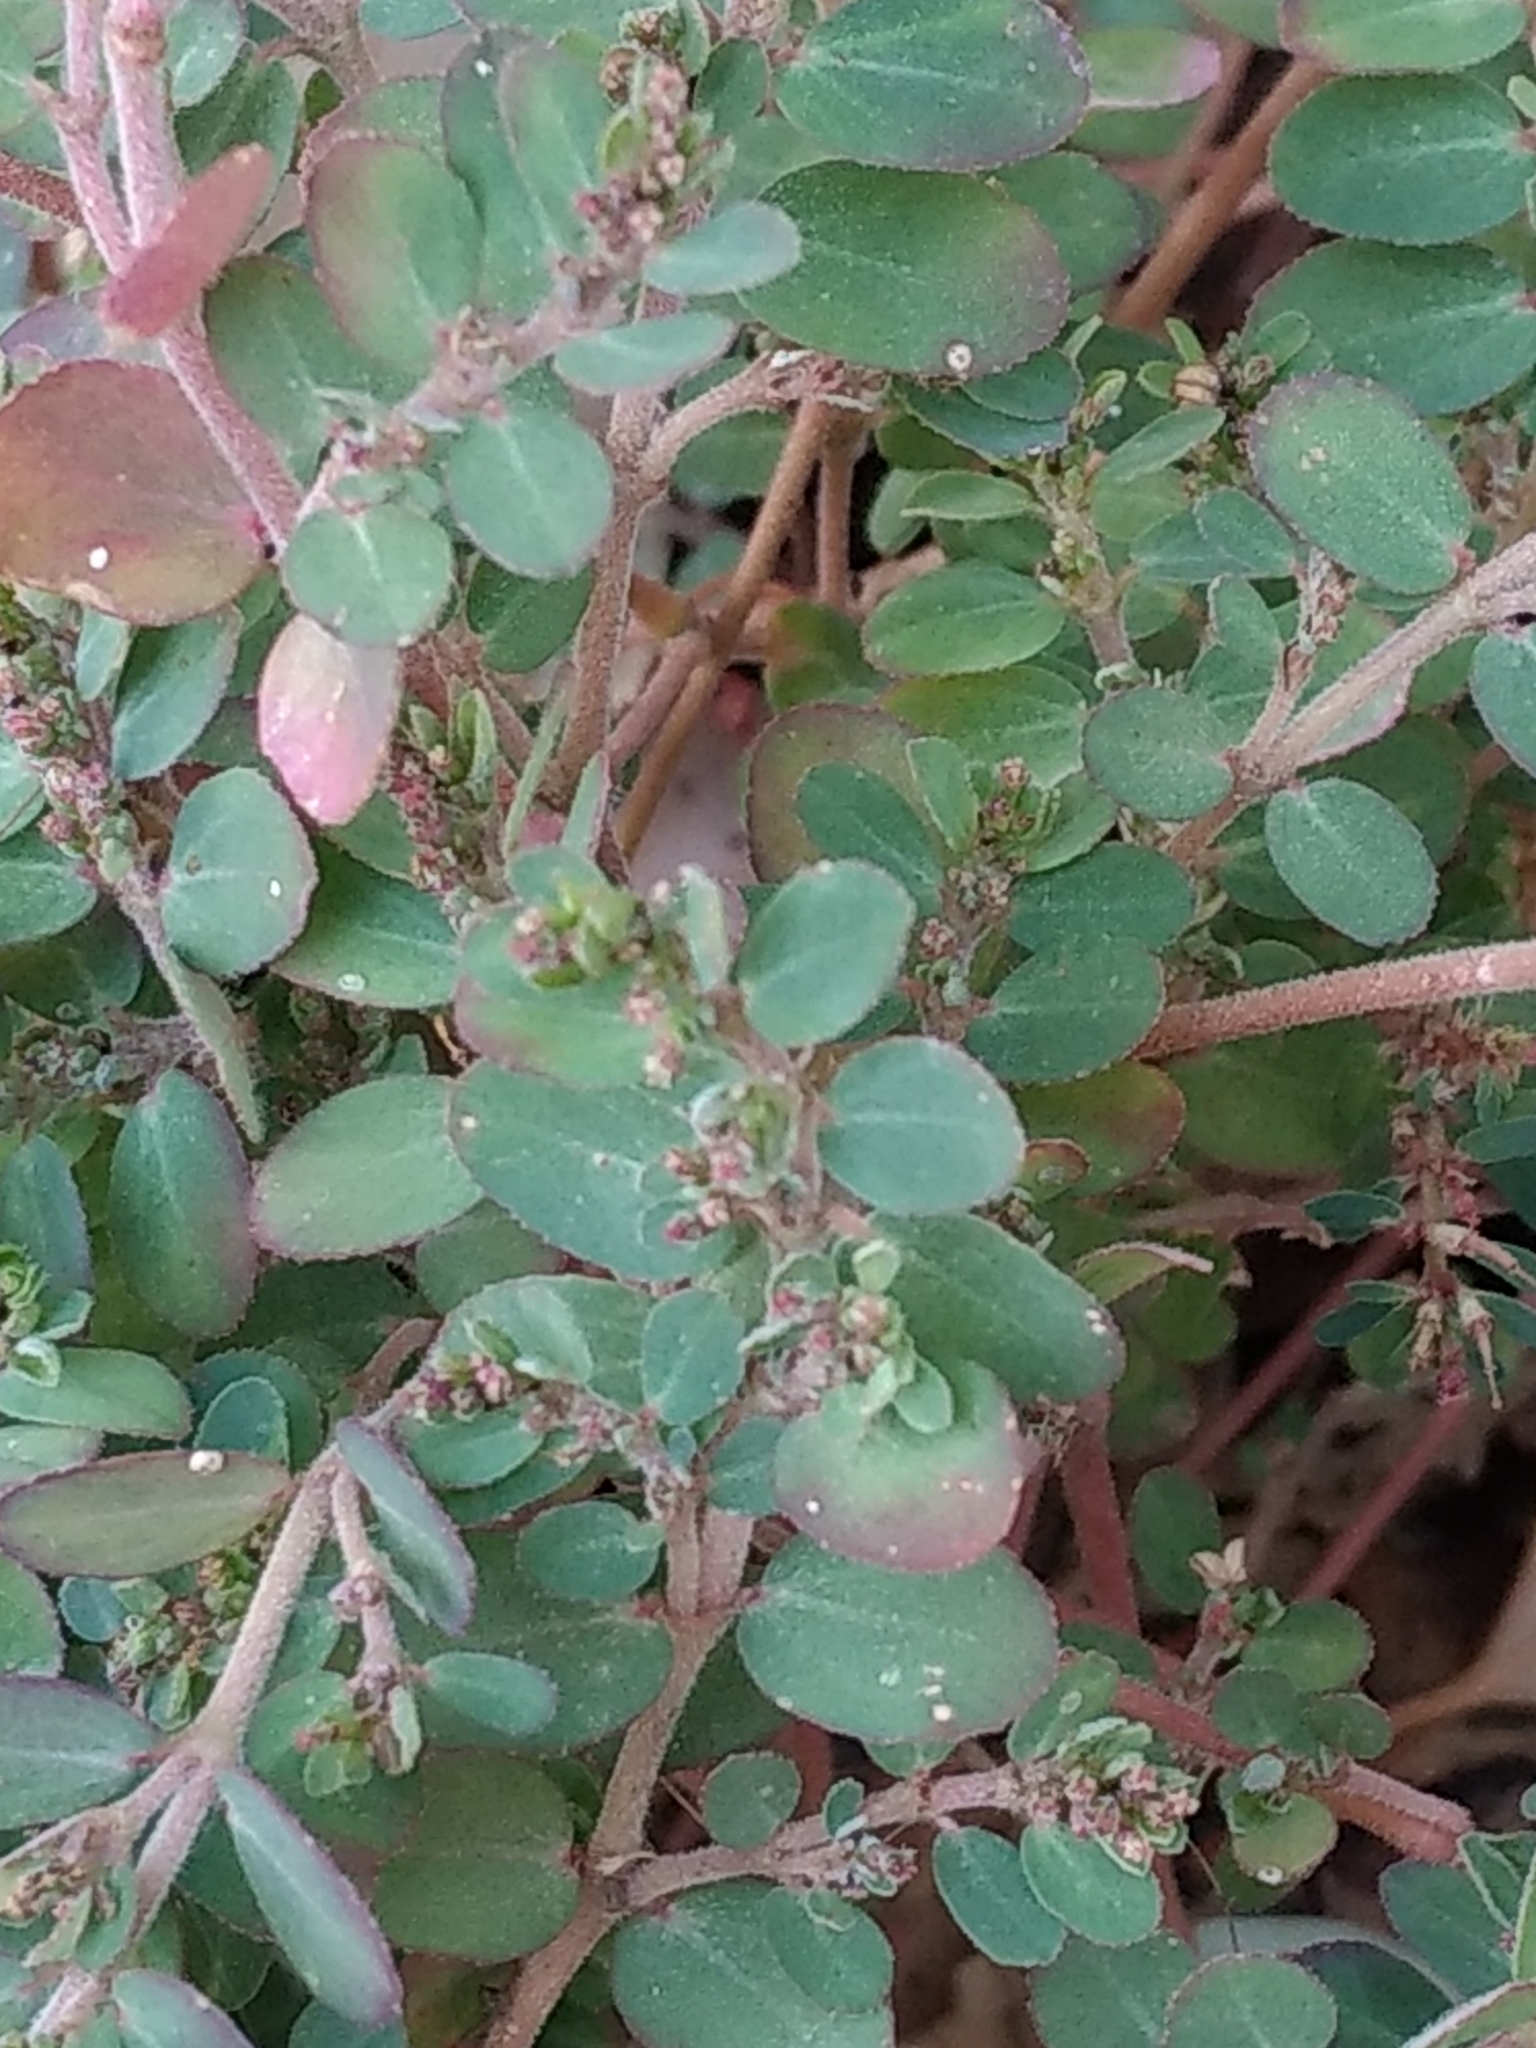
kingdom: Plantae
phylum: Tracheophyta
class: Magnoliopsida
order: Malpighiales
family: Euphorbiaceae
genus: Euphorbia
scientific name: Euphorbia prostrata
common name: Prostrate sandmat
